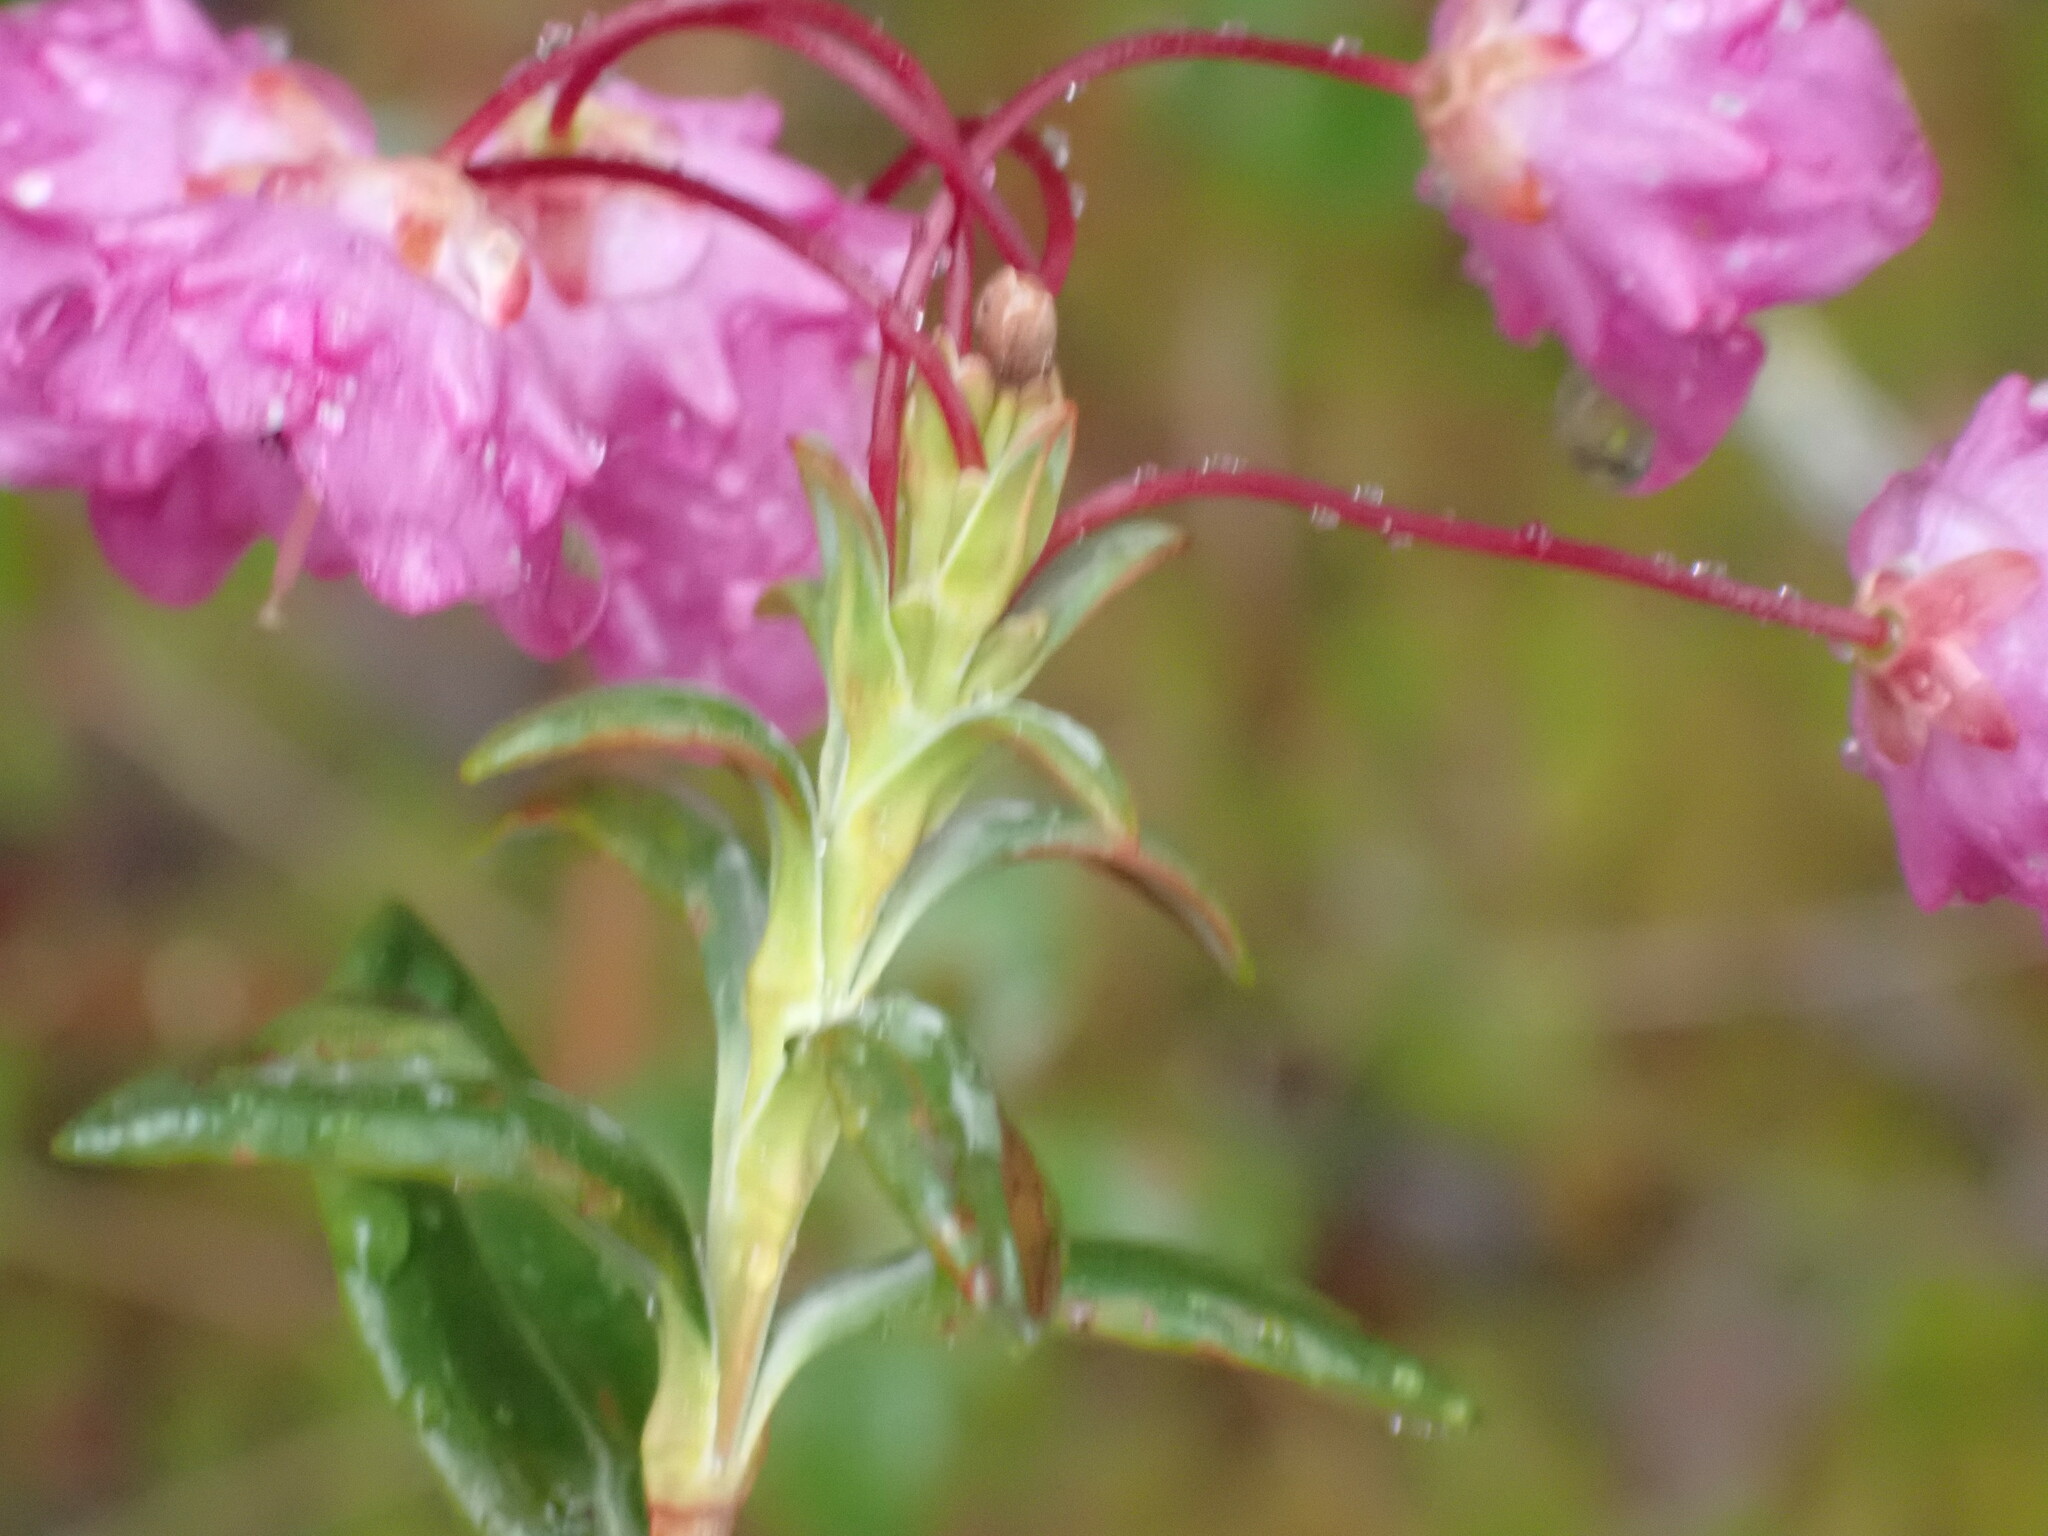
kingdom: Plantae
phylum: Tracheophyta
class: Magnoliopsida
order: Ericales
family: Ericaceae
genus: Kalmia
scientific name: Kalmia microphylla
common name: Alpine bog laurel
